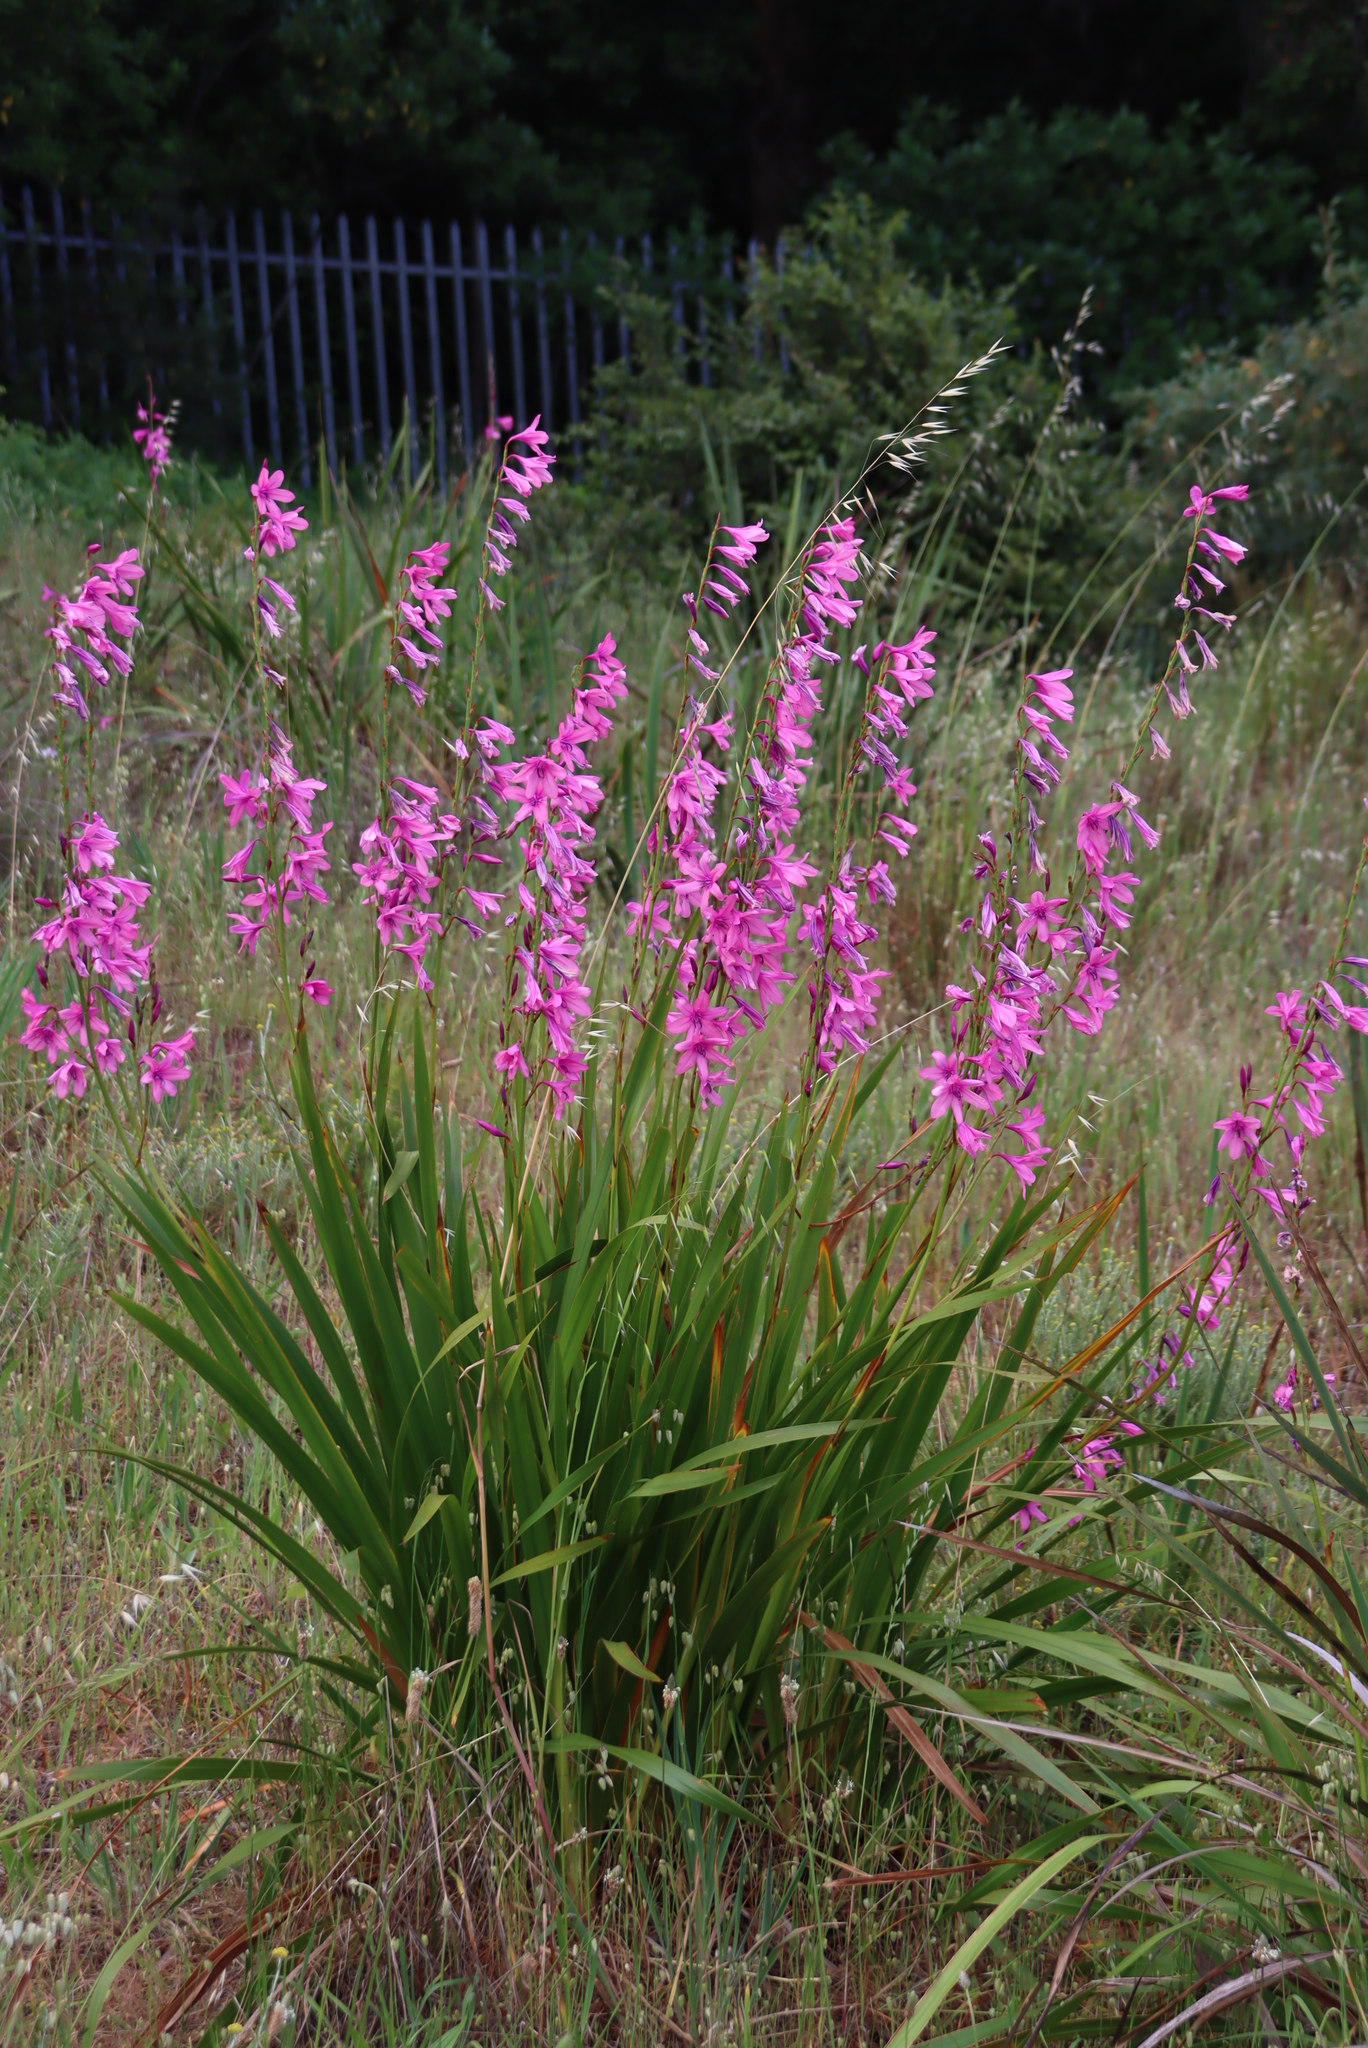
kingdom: Plantae
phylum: Tracheophyta
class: Liliopsida
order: Asparagales
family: Iridaceae
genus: Watsonia
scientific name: Watsonia borbonica
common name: Bugle-lily
